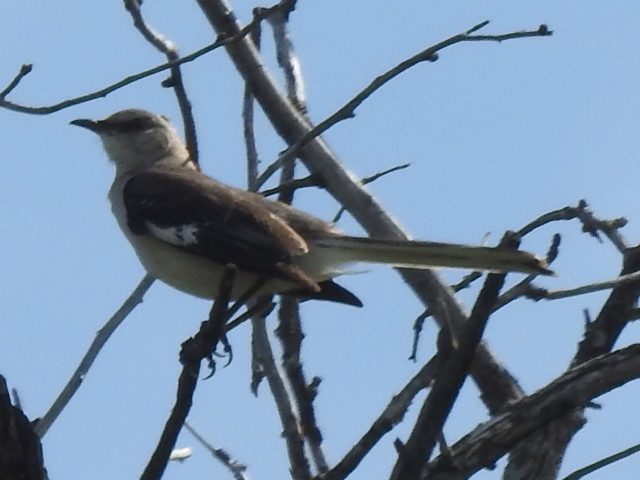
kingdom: Animalia
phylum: Chordata
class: Aves
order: Passeriformes
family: Mimidae
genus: Mimus
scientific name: Mimus polyglottos
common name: Northern mockingbird
